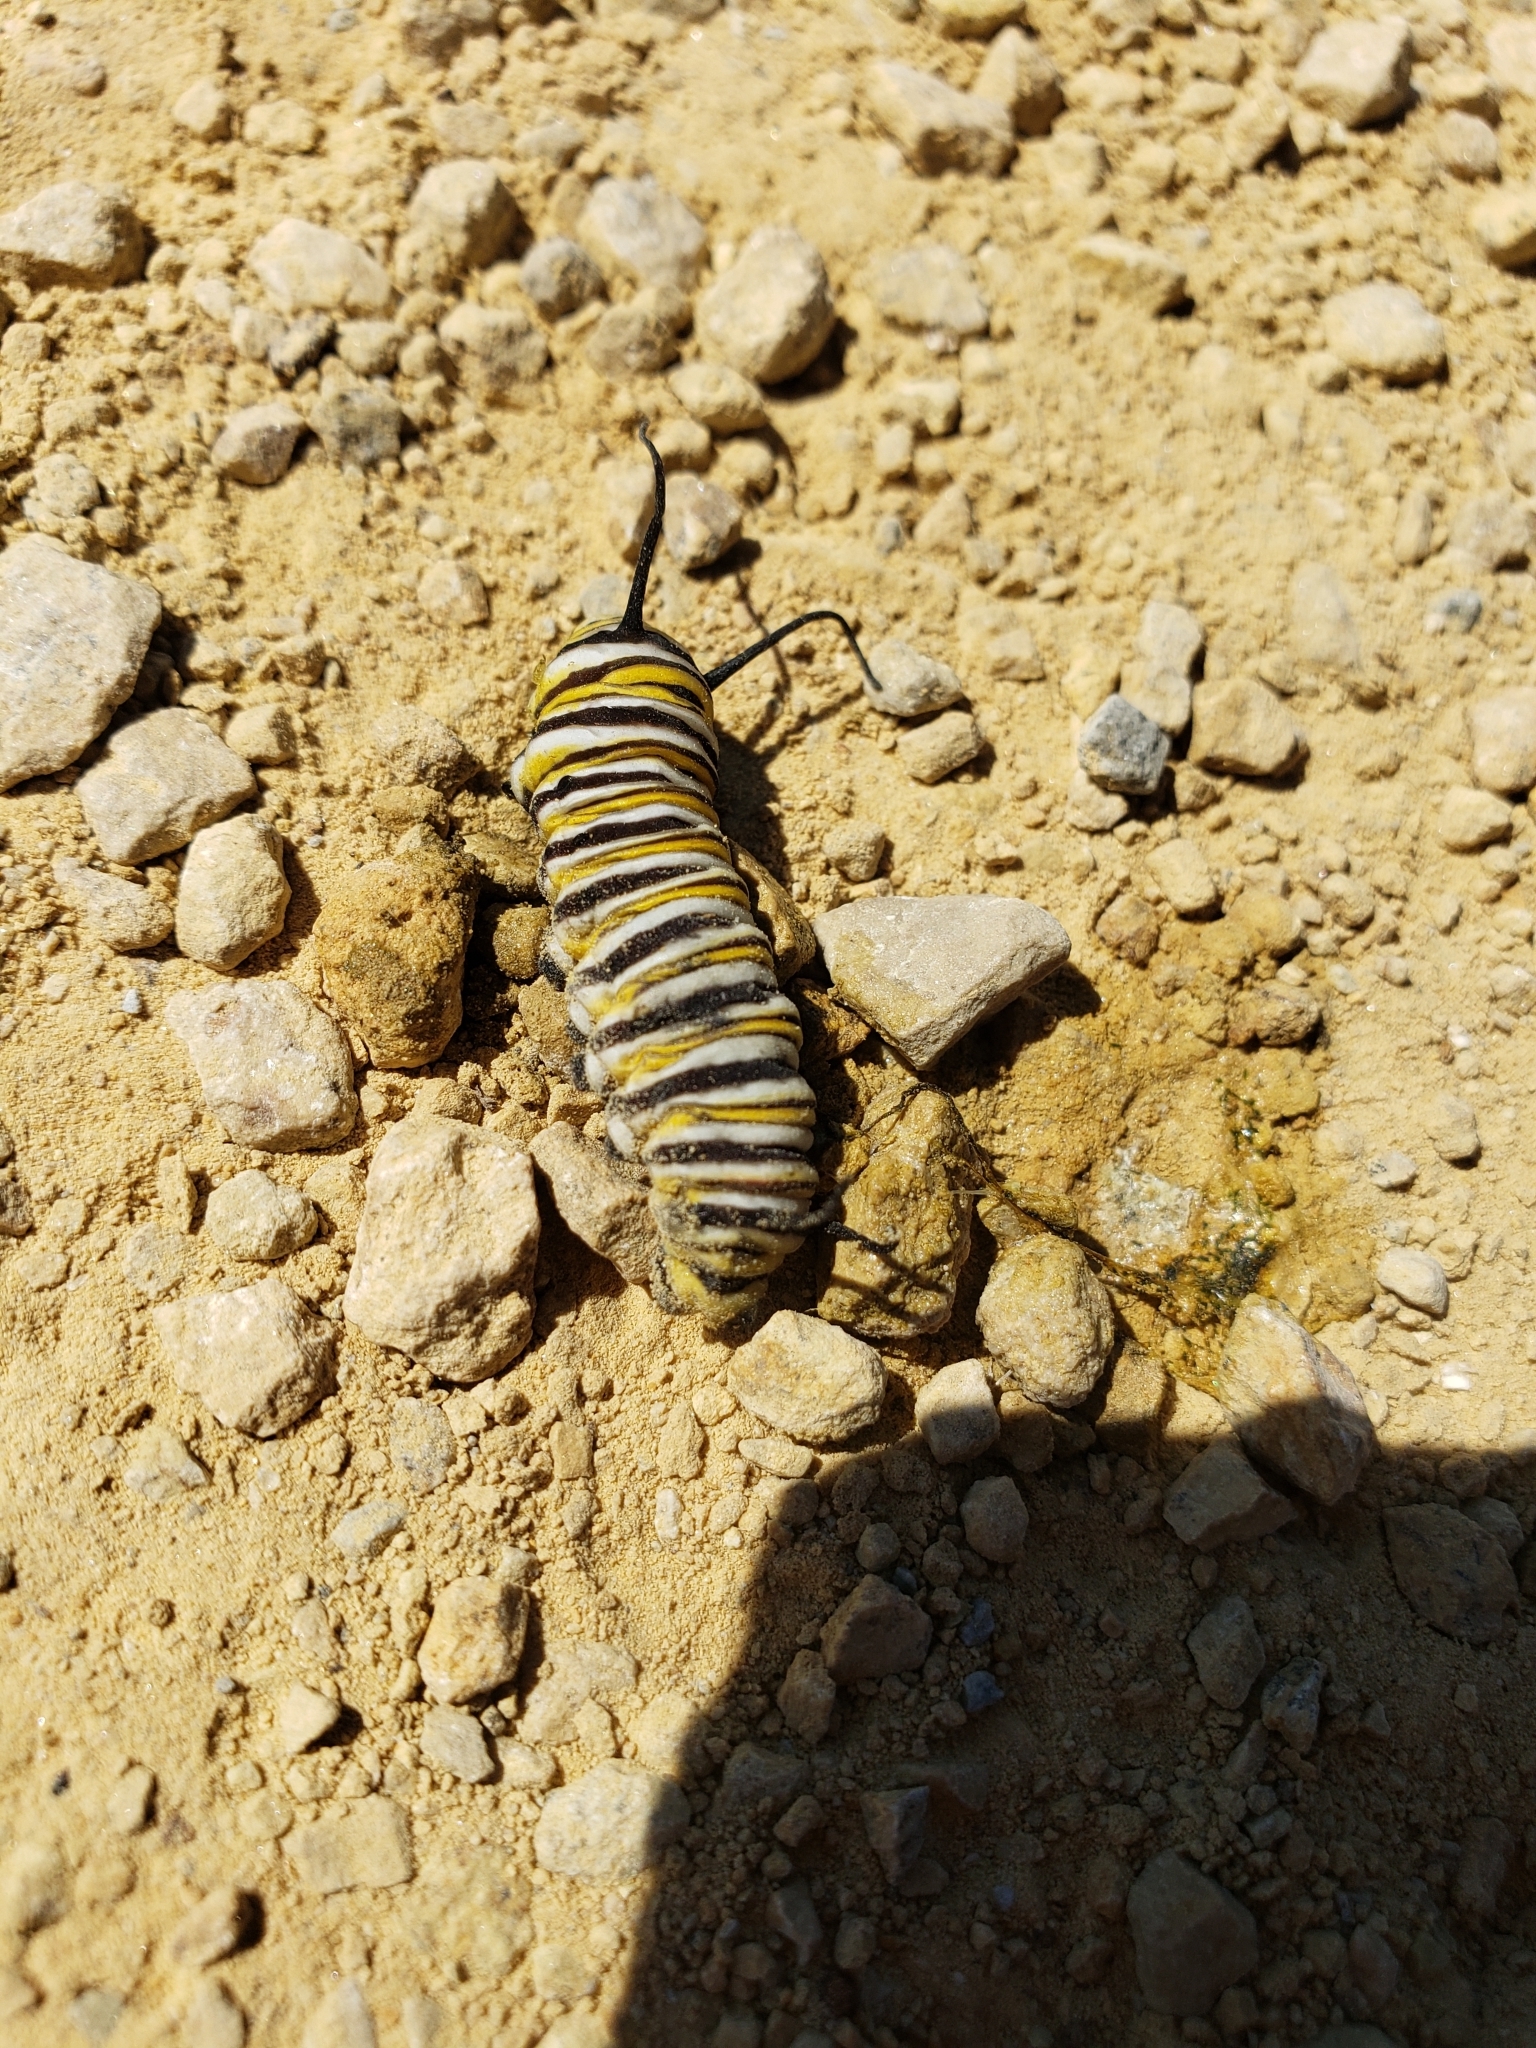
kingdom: Animalia
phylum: Arthropoda
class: Insecta
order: Lepidoptera
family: Nymphalidae
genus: Danaus
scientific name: Danaus plexippus
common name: Monarch
